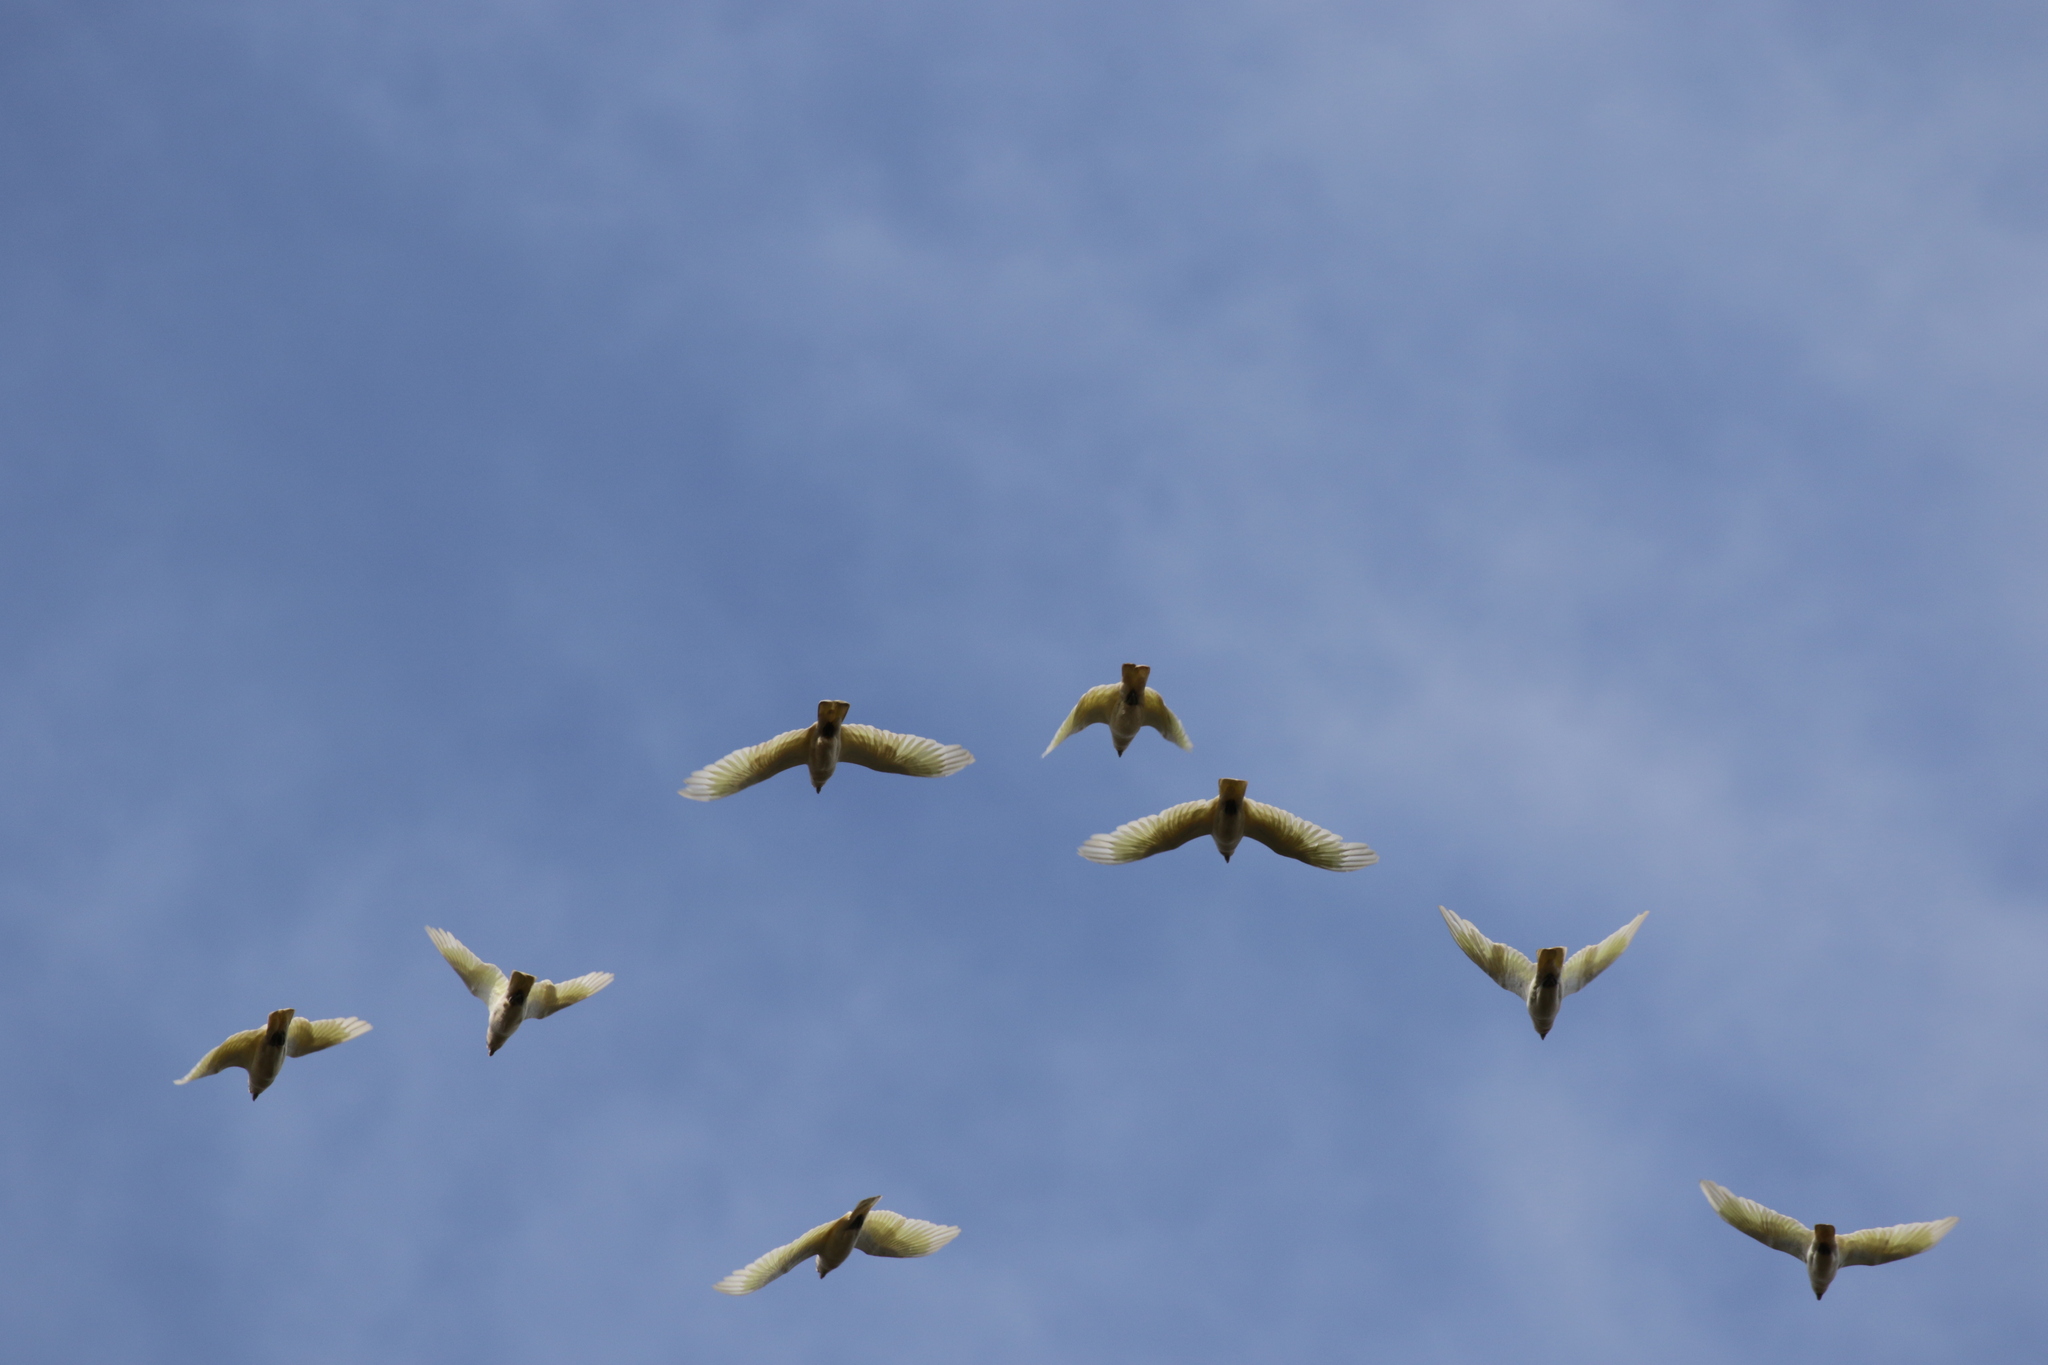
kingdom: Animalia
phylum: Chordata
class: Aves
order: Psittaciformes
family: Psittacidae
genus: Cacatua
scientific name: Cacatua galerita
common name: Sulphur-crested cockatoo
